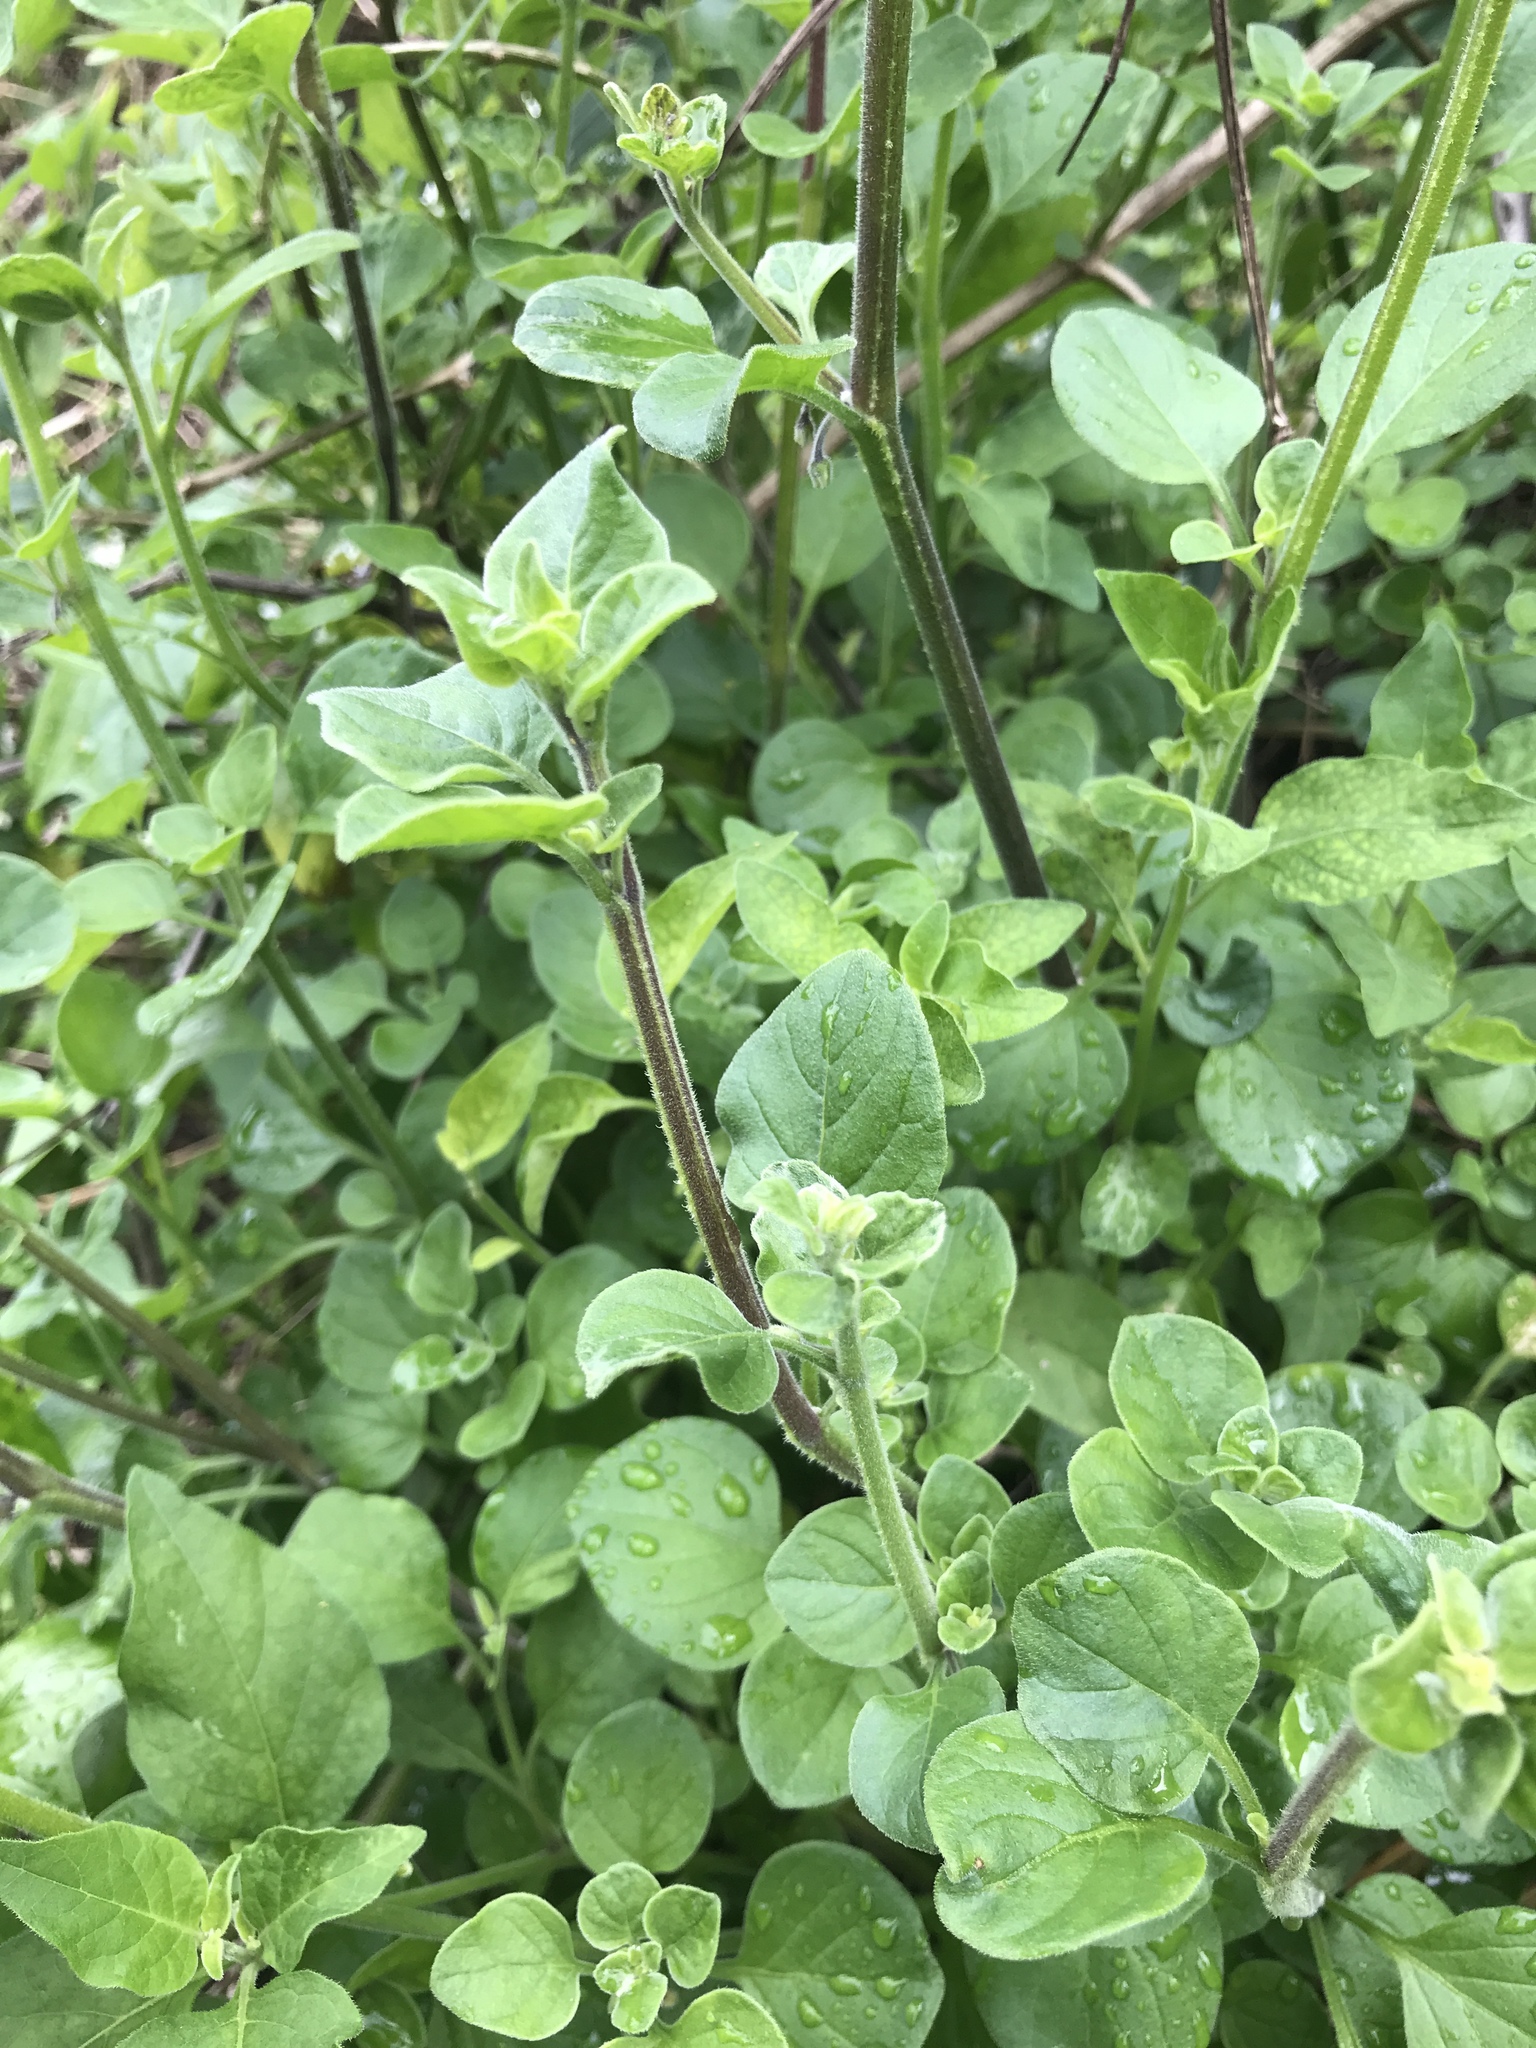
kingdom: Plantae
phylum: Tracheophyta
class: Magnoliopsida
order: Solanales
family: Solanaceae
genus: Salpichroa
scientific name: Salpichroa origanifolia
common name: Lily-of-the-valley-vine
